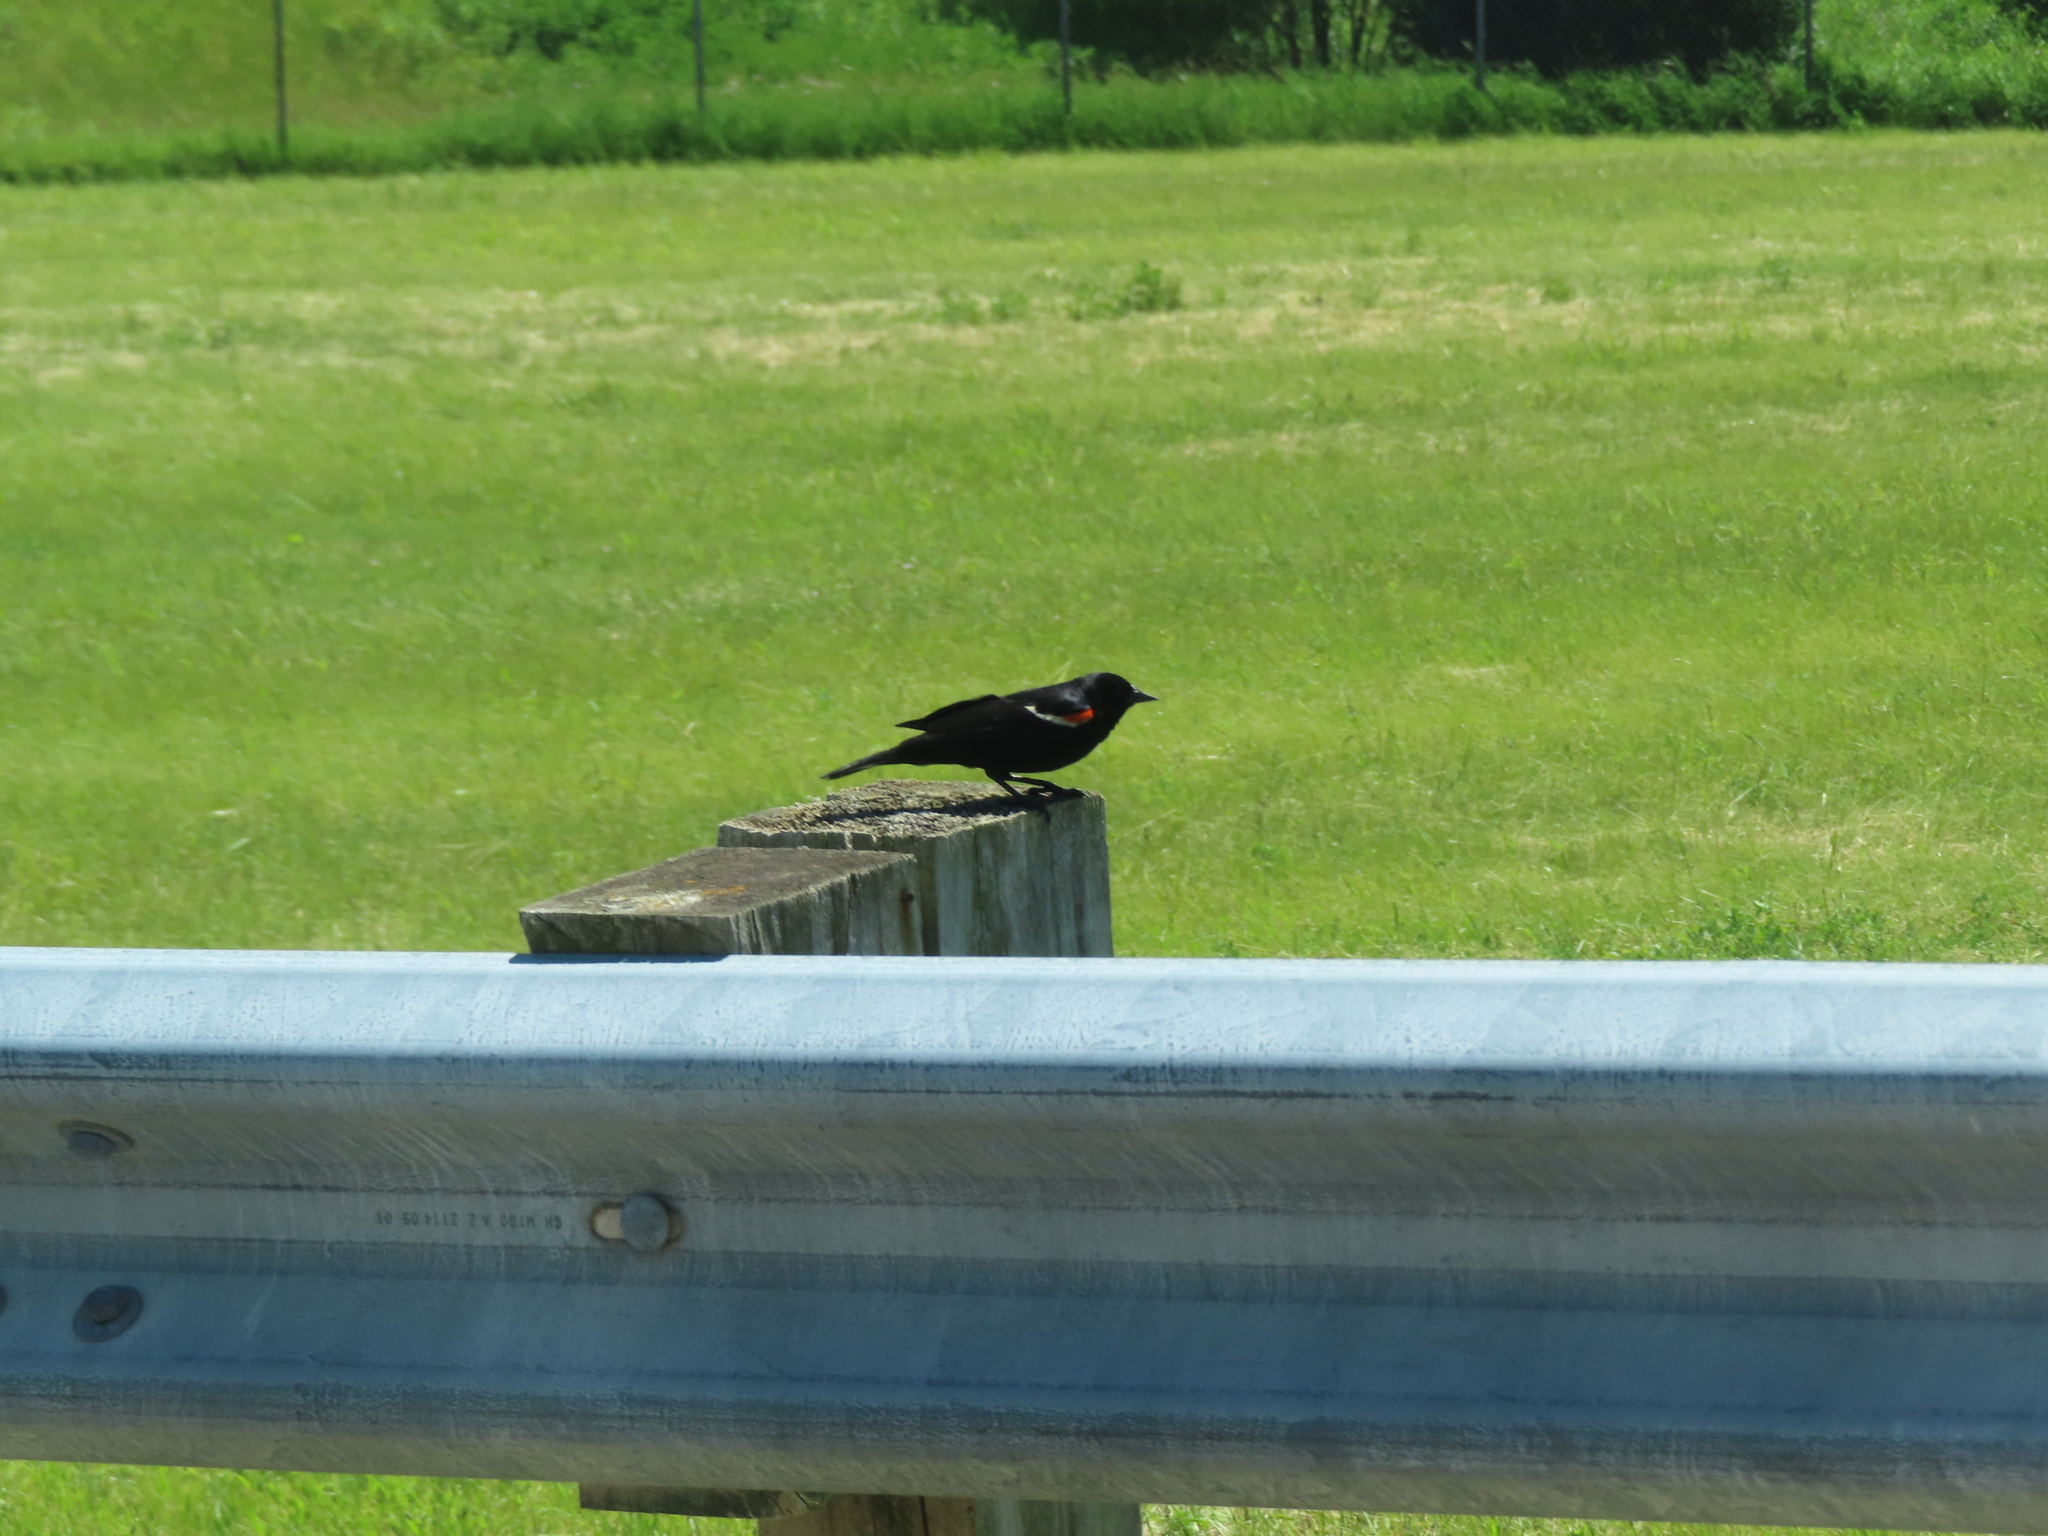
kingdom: Animalia
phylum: Chordata
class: Aves
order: Passeriformes
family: Icteridae
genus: Agelaius
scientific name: Agelaius phoeniceus
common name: Red-winged blackbird
